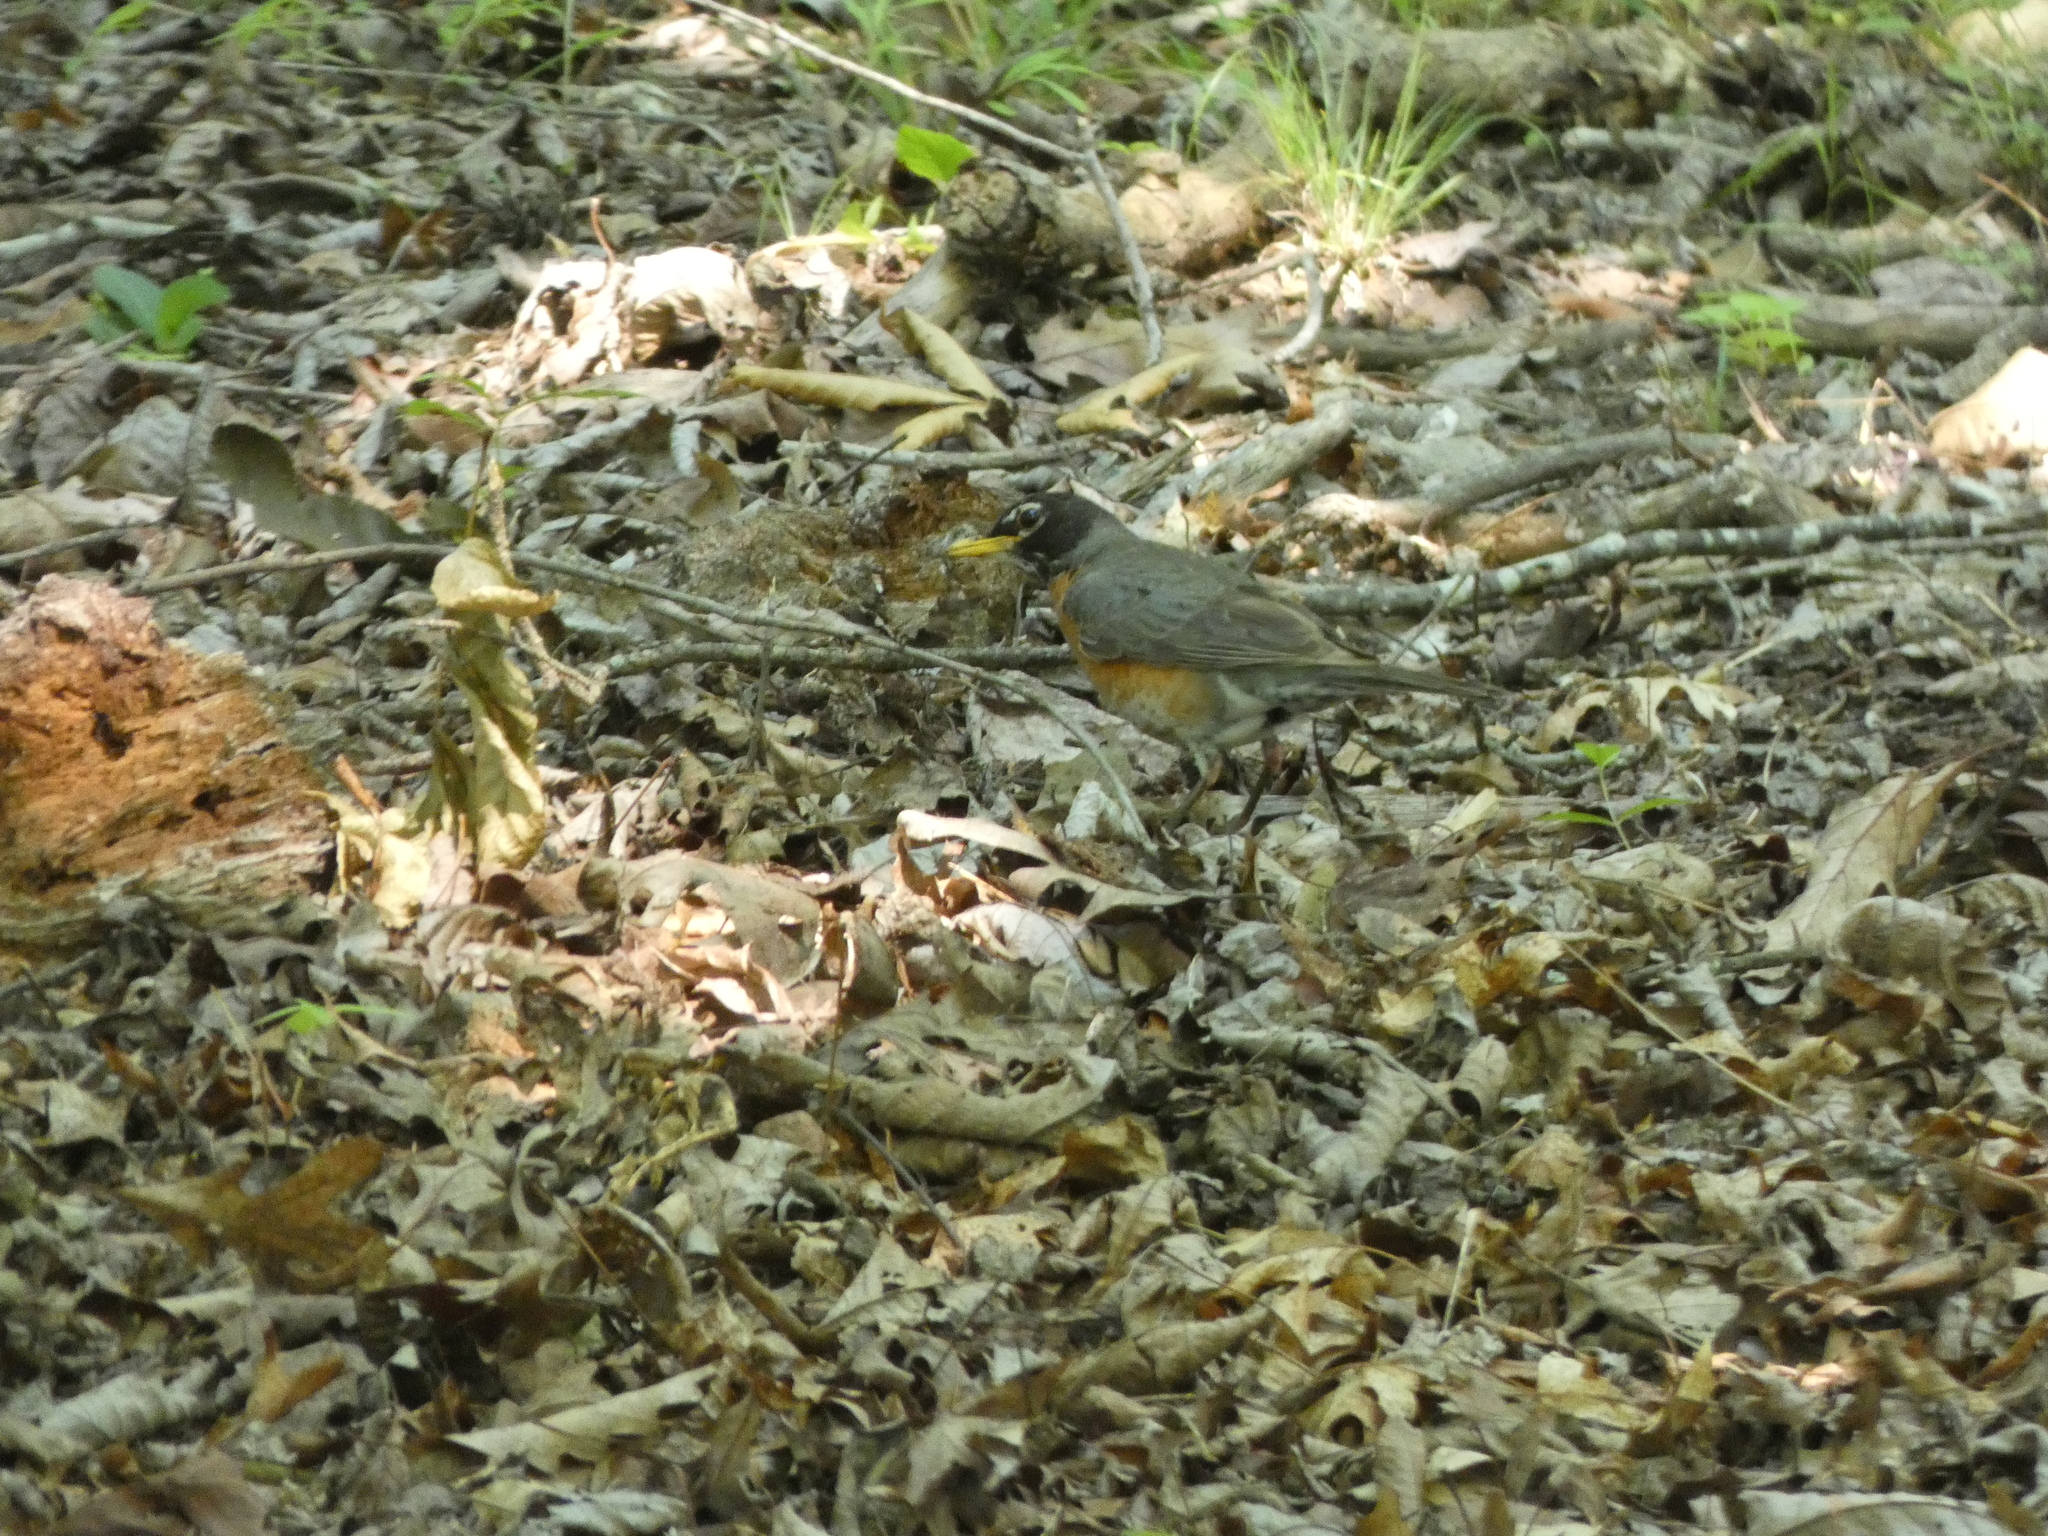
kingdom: Animalia
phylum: Chordata
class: Aves
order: Passeriformes
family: Turdidae
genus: Turdus
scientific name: Turdus migratorius
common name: American robin
